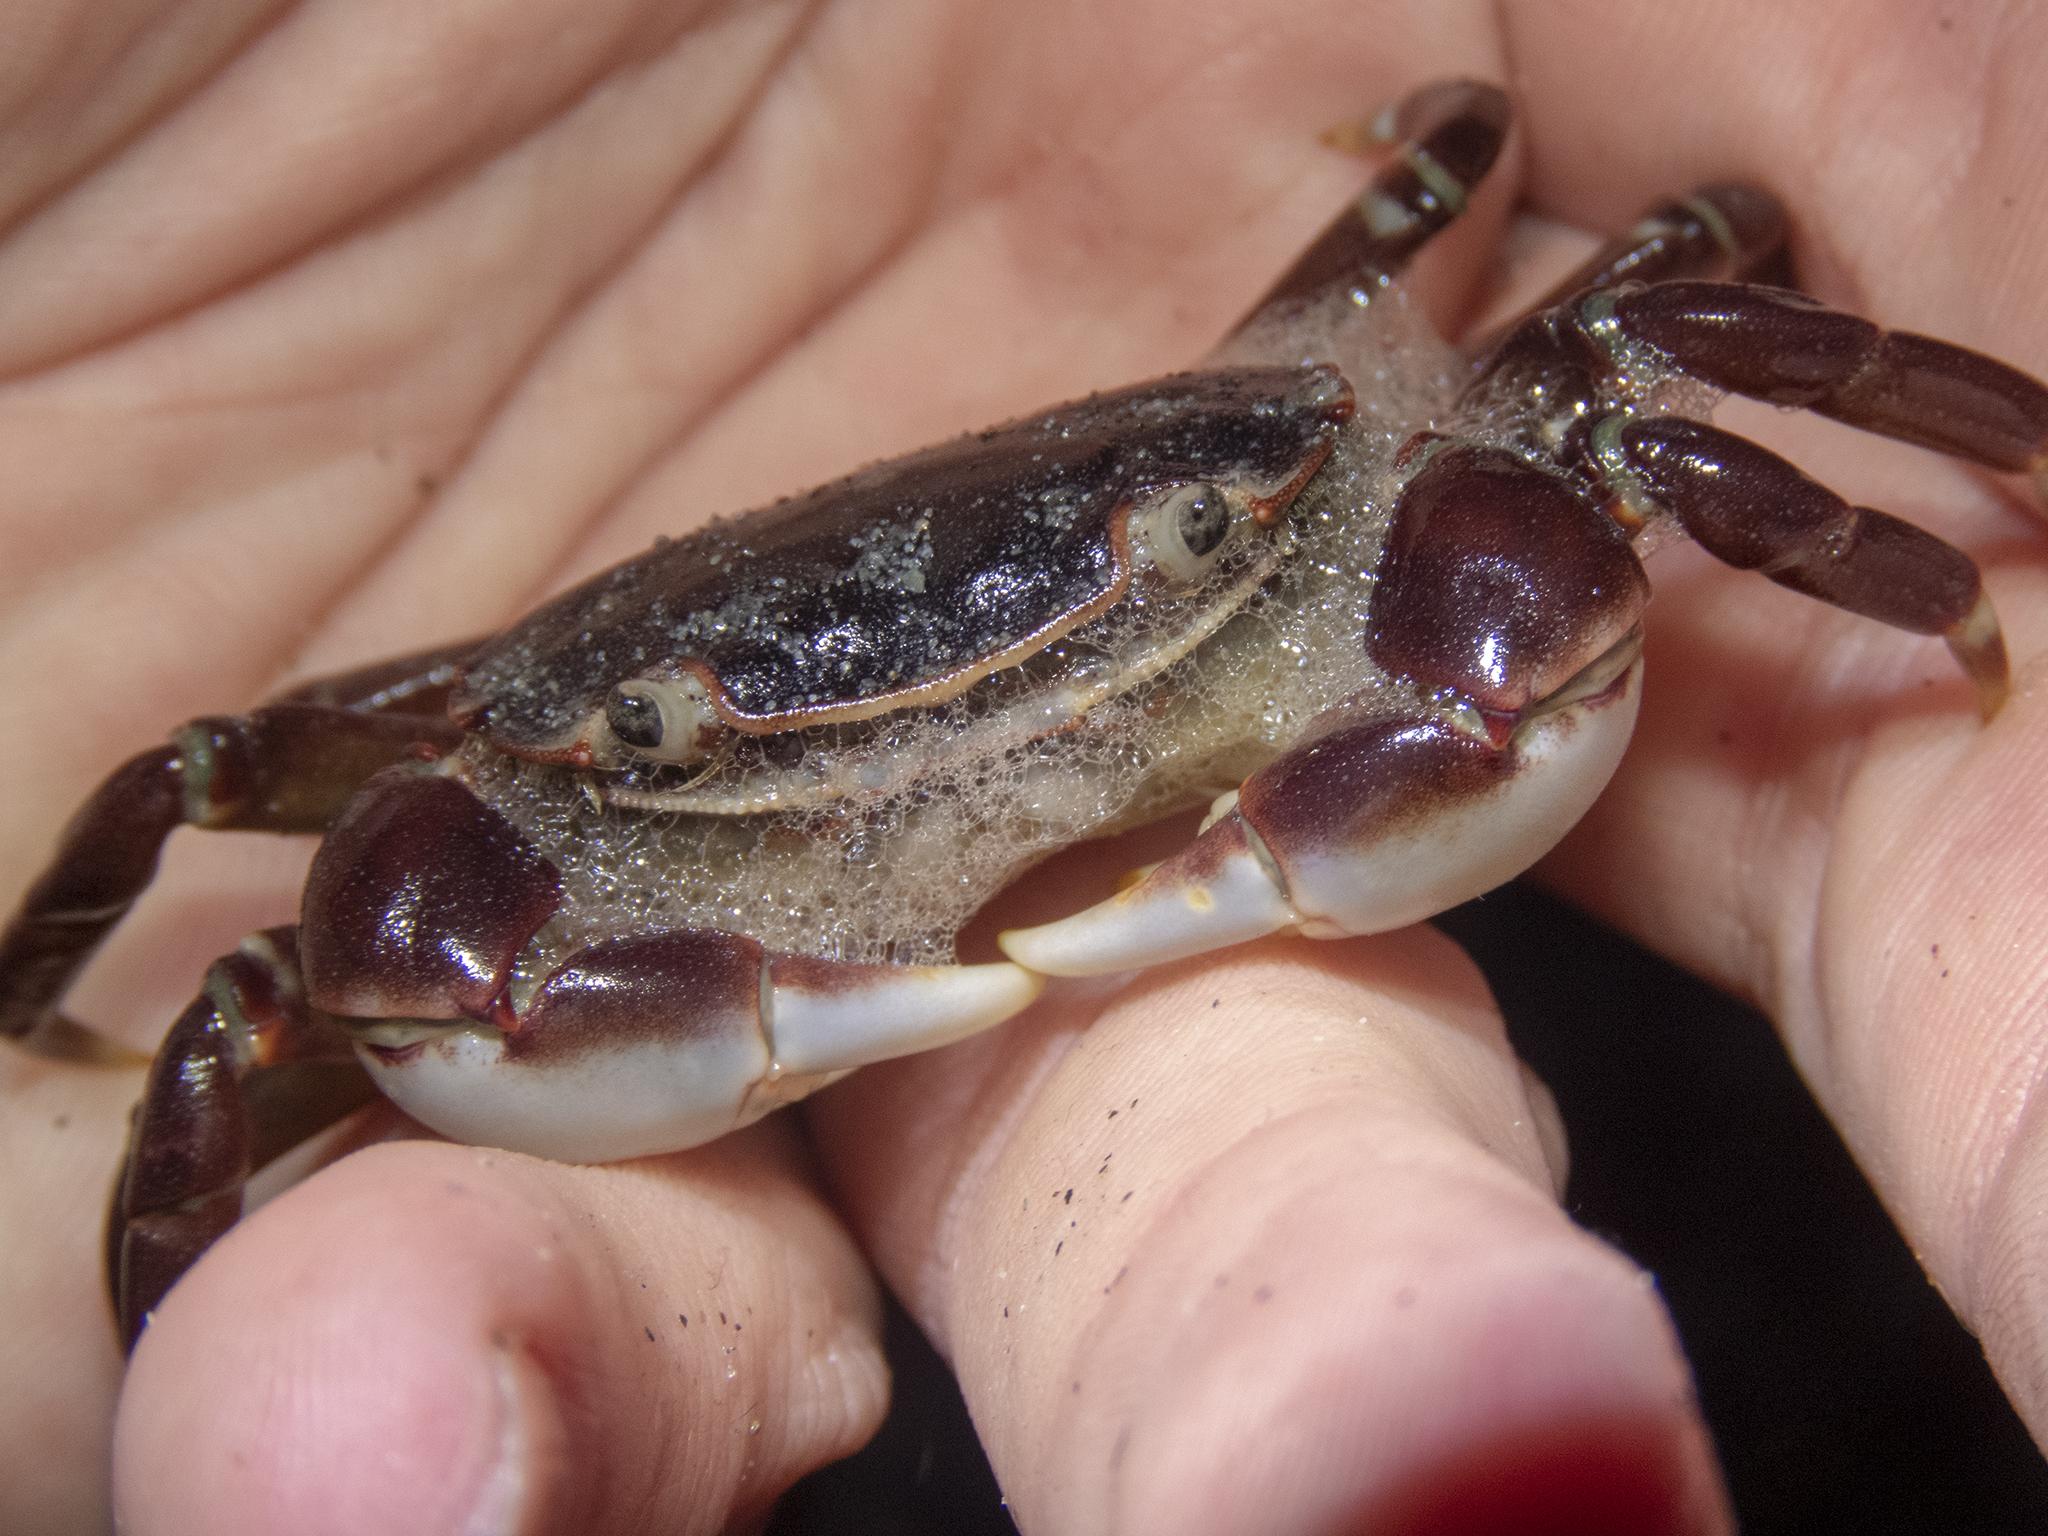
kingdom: Animalia
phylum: Arthropoda
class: Malacostraca
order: Decapoda
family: Varunidae
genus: Hemigrapsus
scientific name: Hemigrapsus sexdentatus
